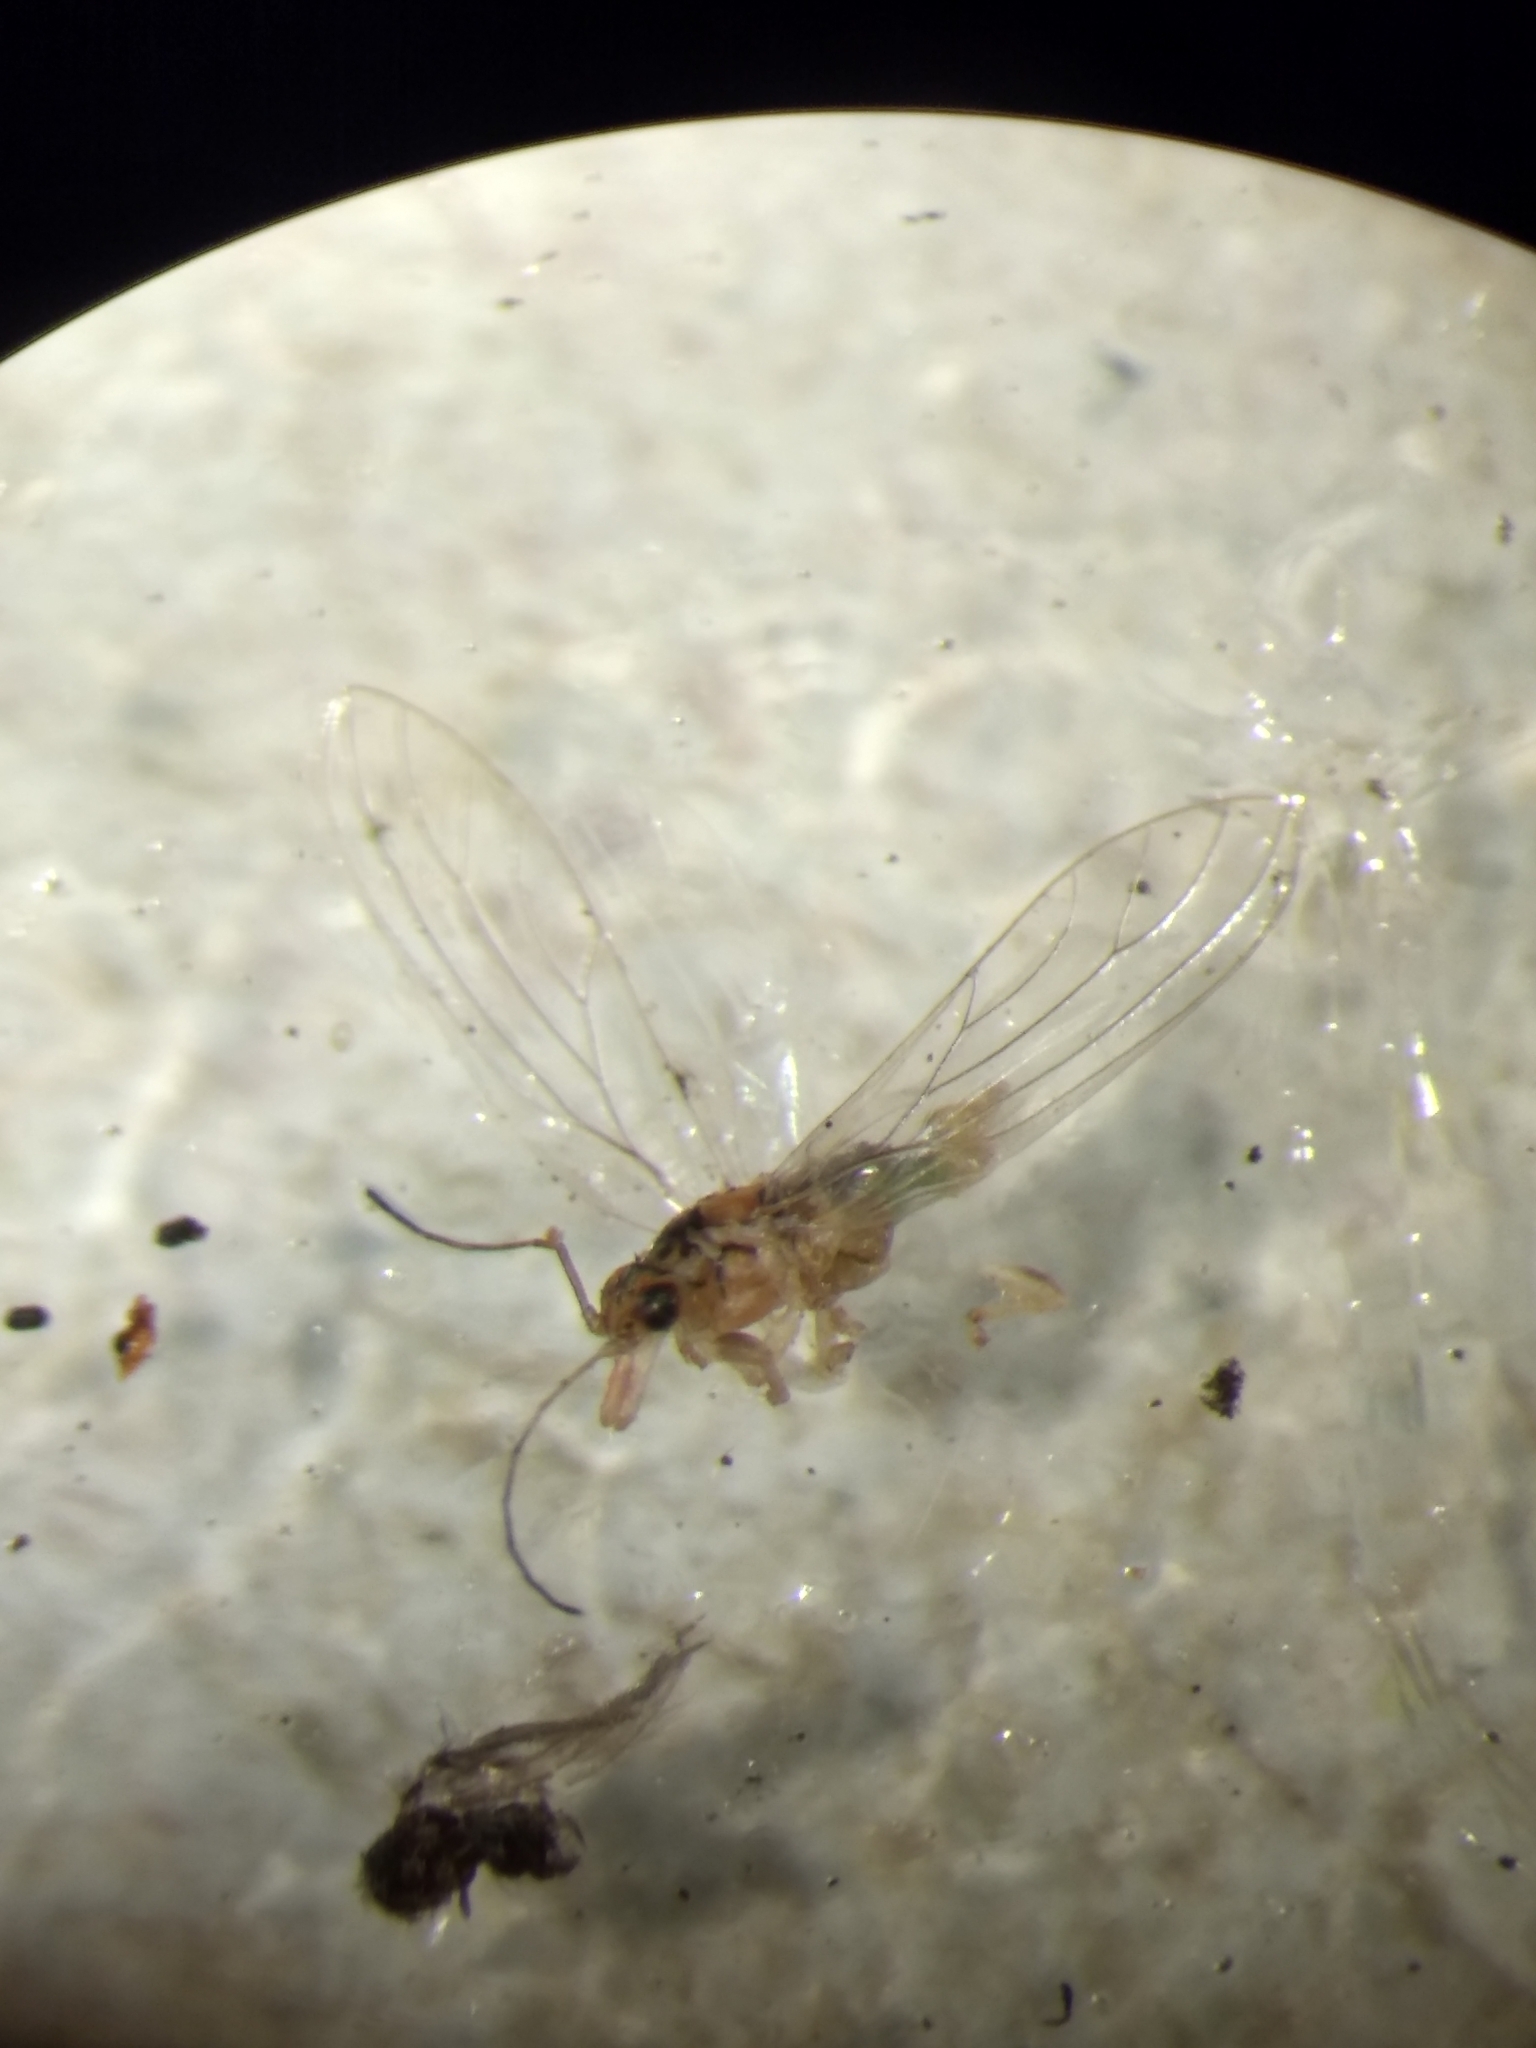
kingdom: Animalia
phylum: Arthropoda
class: Insecta
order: Hemiptera
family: Aphalaridae
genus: Glycaspis
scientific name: Glycaspis brimblecombei
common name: Red gum lerp psyllid
